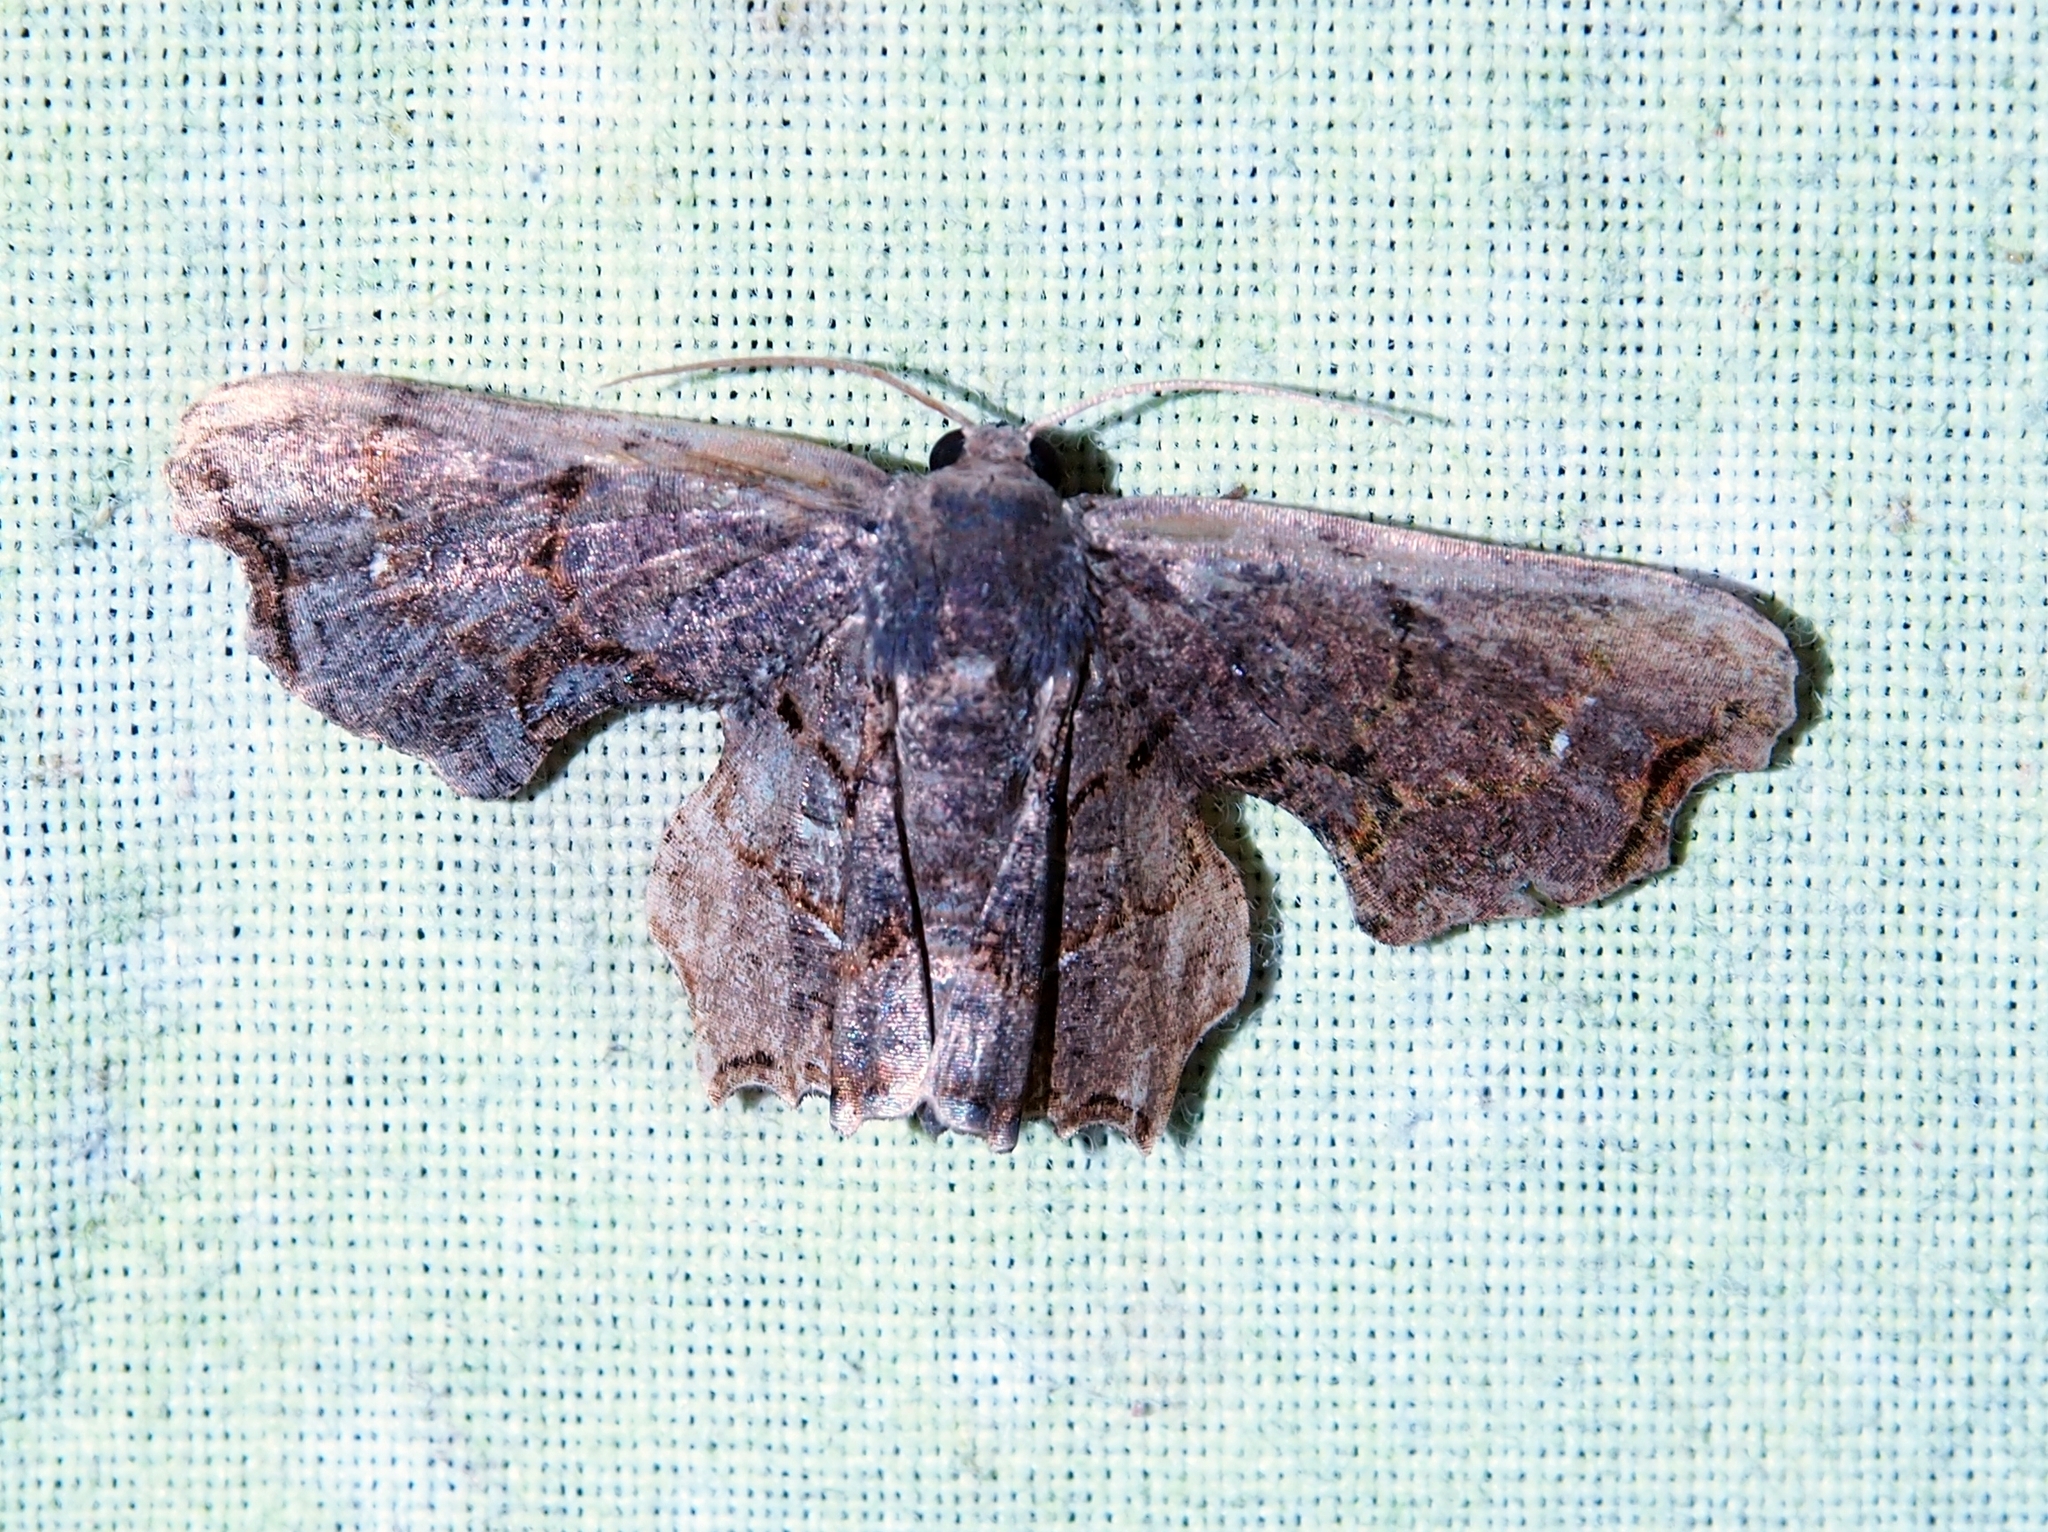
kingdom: Animalia
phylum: Arthropoda
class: Insecta
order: Lepidoptera
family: Uraniidae
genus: Epiplema
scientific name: Epiplema Calledapteryx dryopterata
